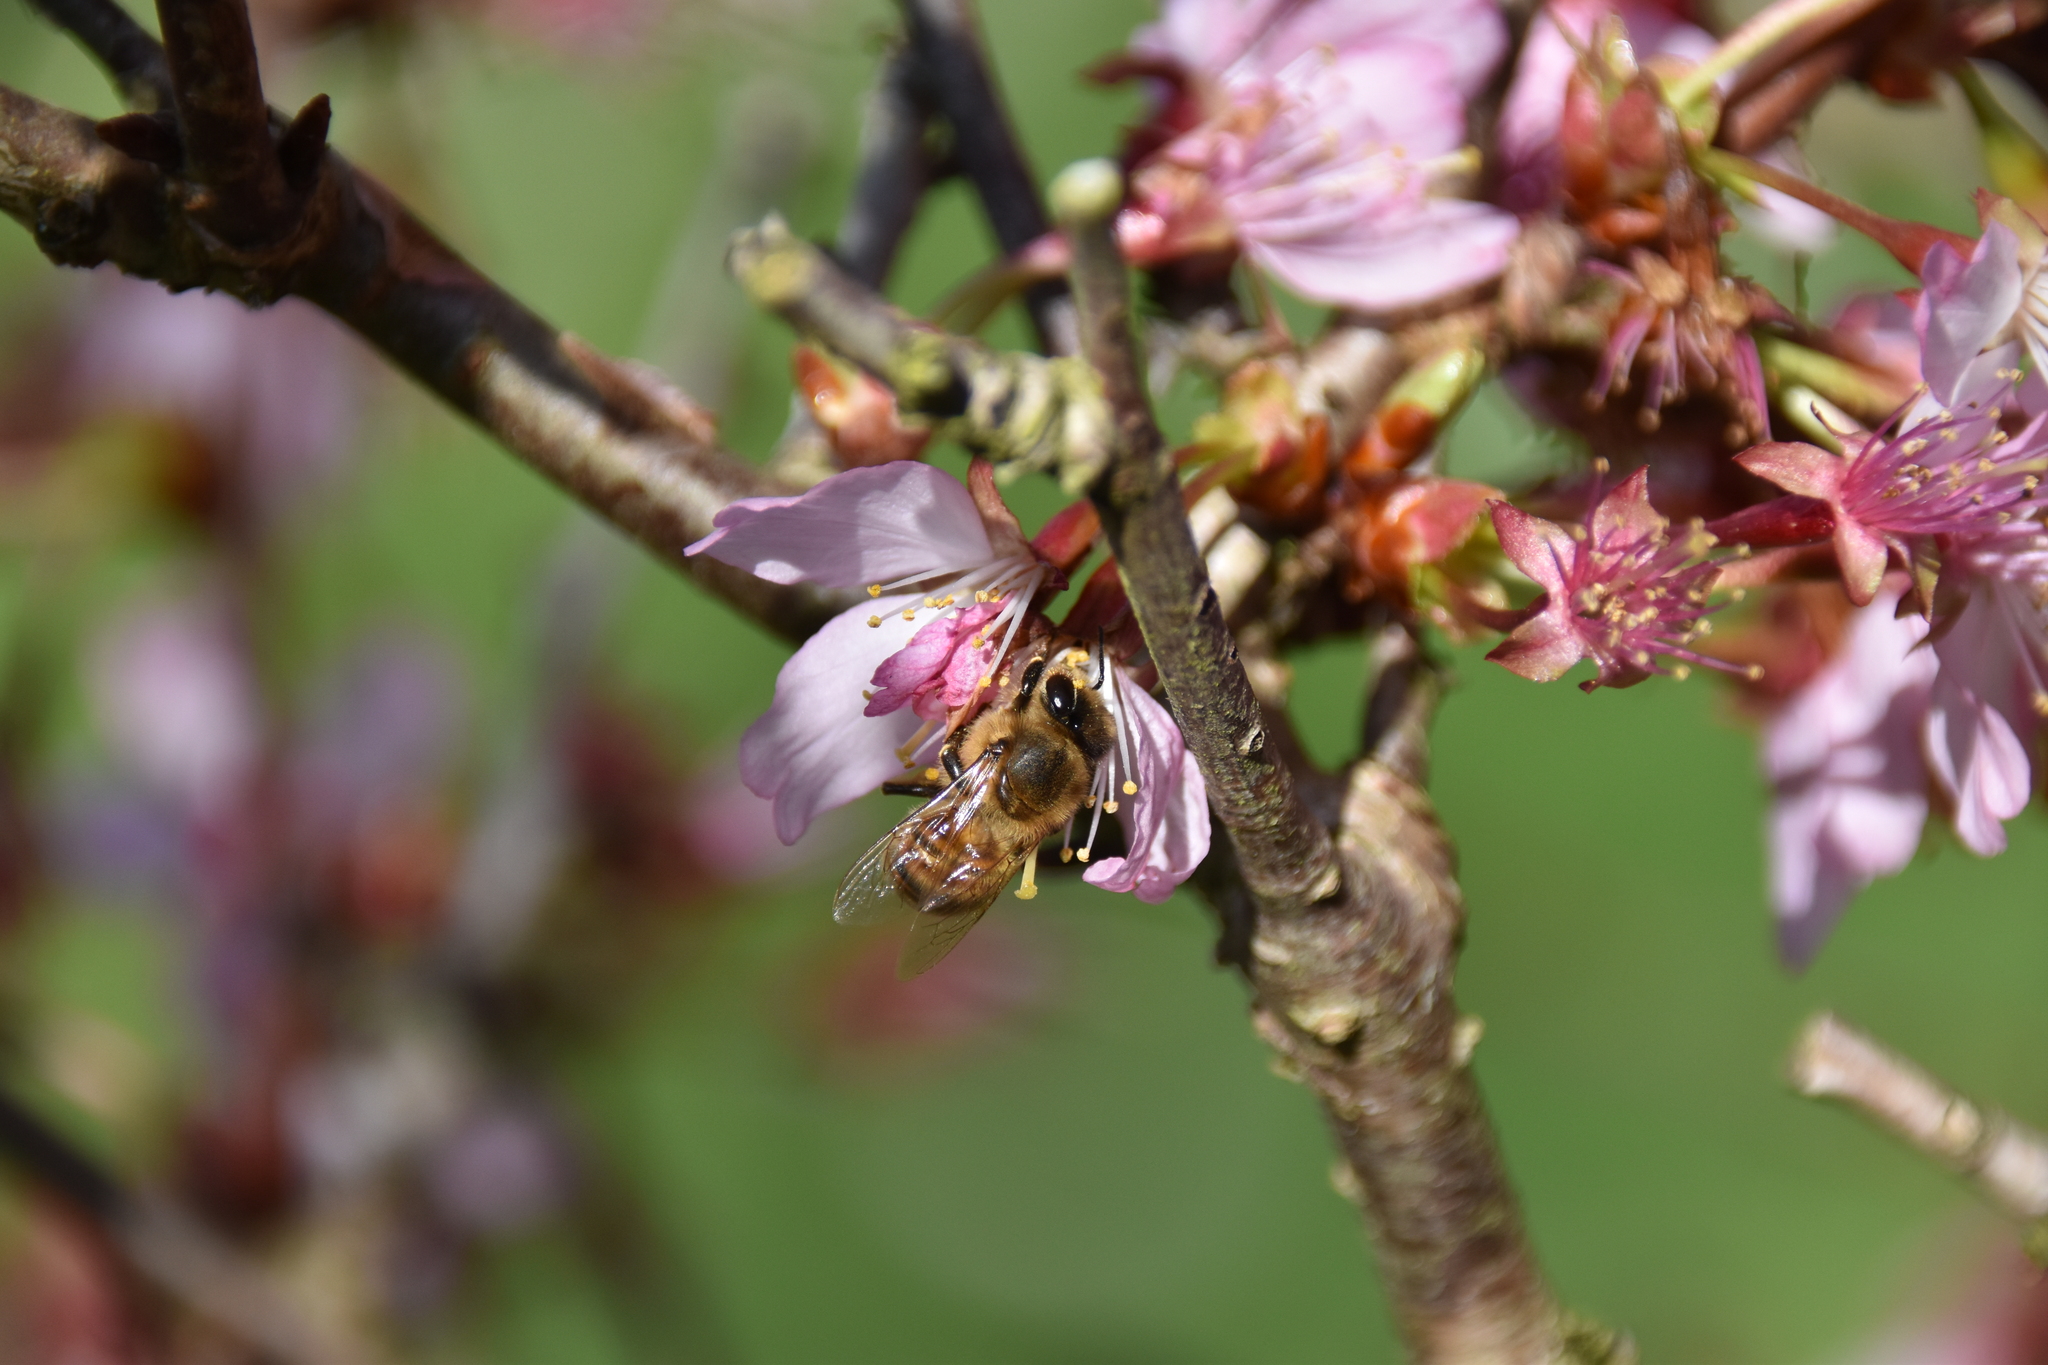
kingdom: Animalia
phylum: Arthropoda
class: Insecta
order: Hymenoptera
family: Apidae
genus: Apis
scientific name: Apis mellifera
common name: Honey bee
